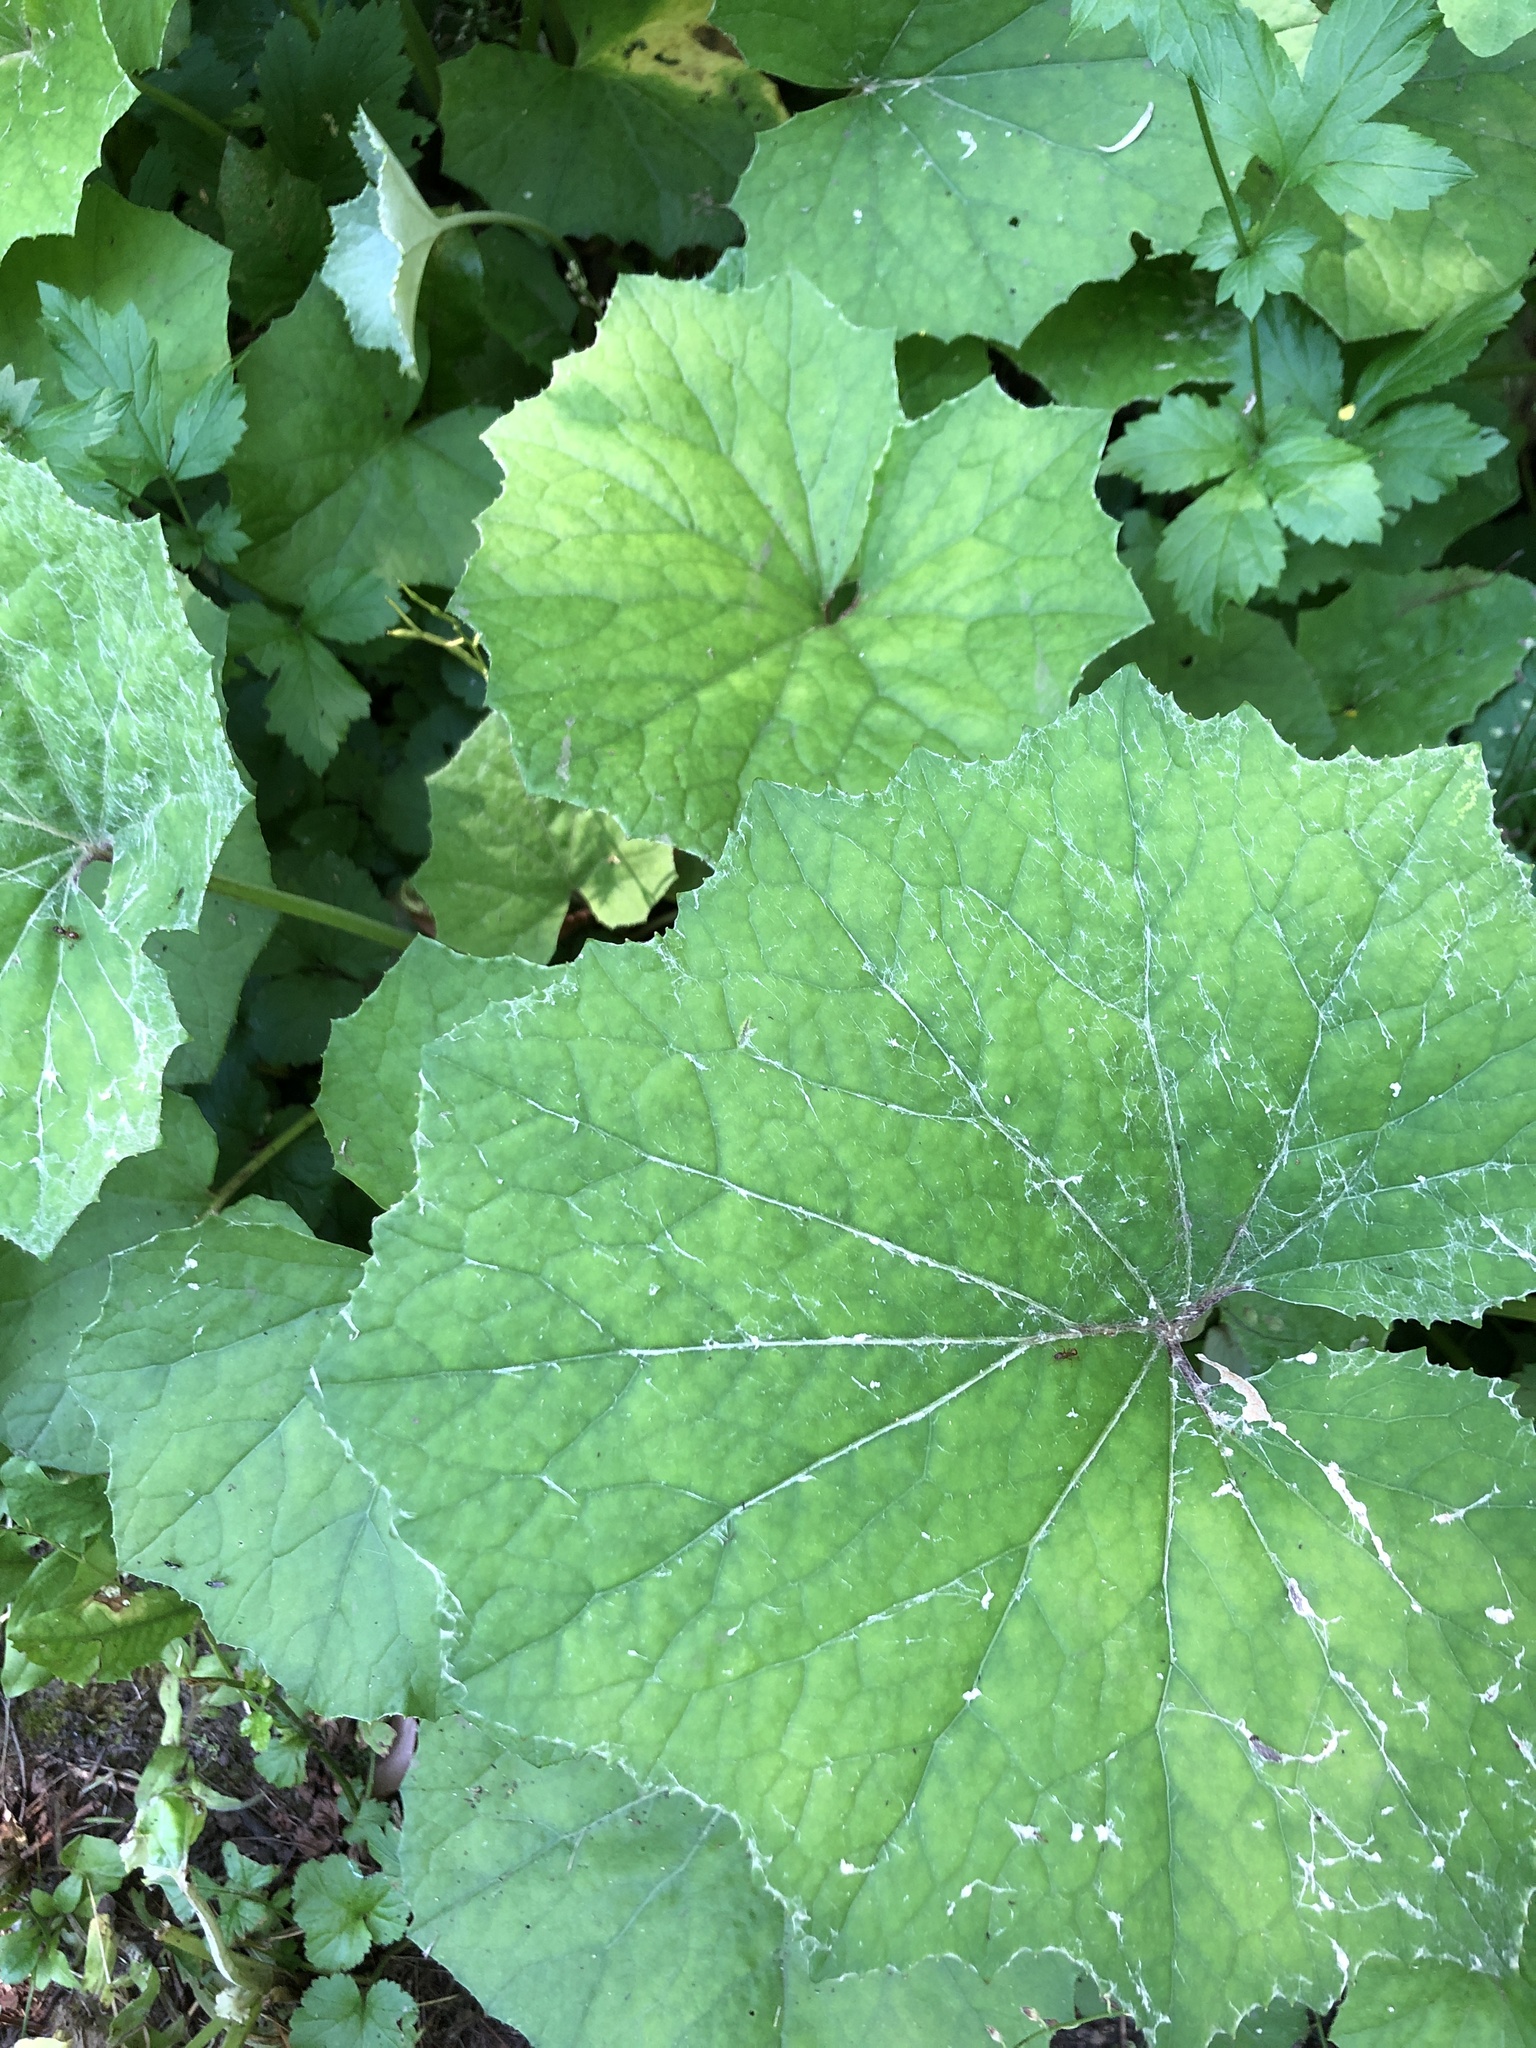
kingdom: Plantae
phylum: Tracheophyta
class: Magnoliopsida
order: Asterales
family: Asteraceae
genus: Tussilago
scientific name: Tussilago farfara
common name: Coltsfoot
